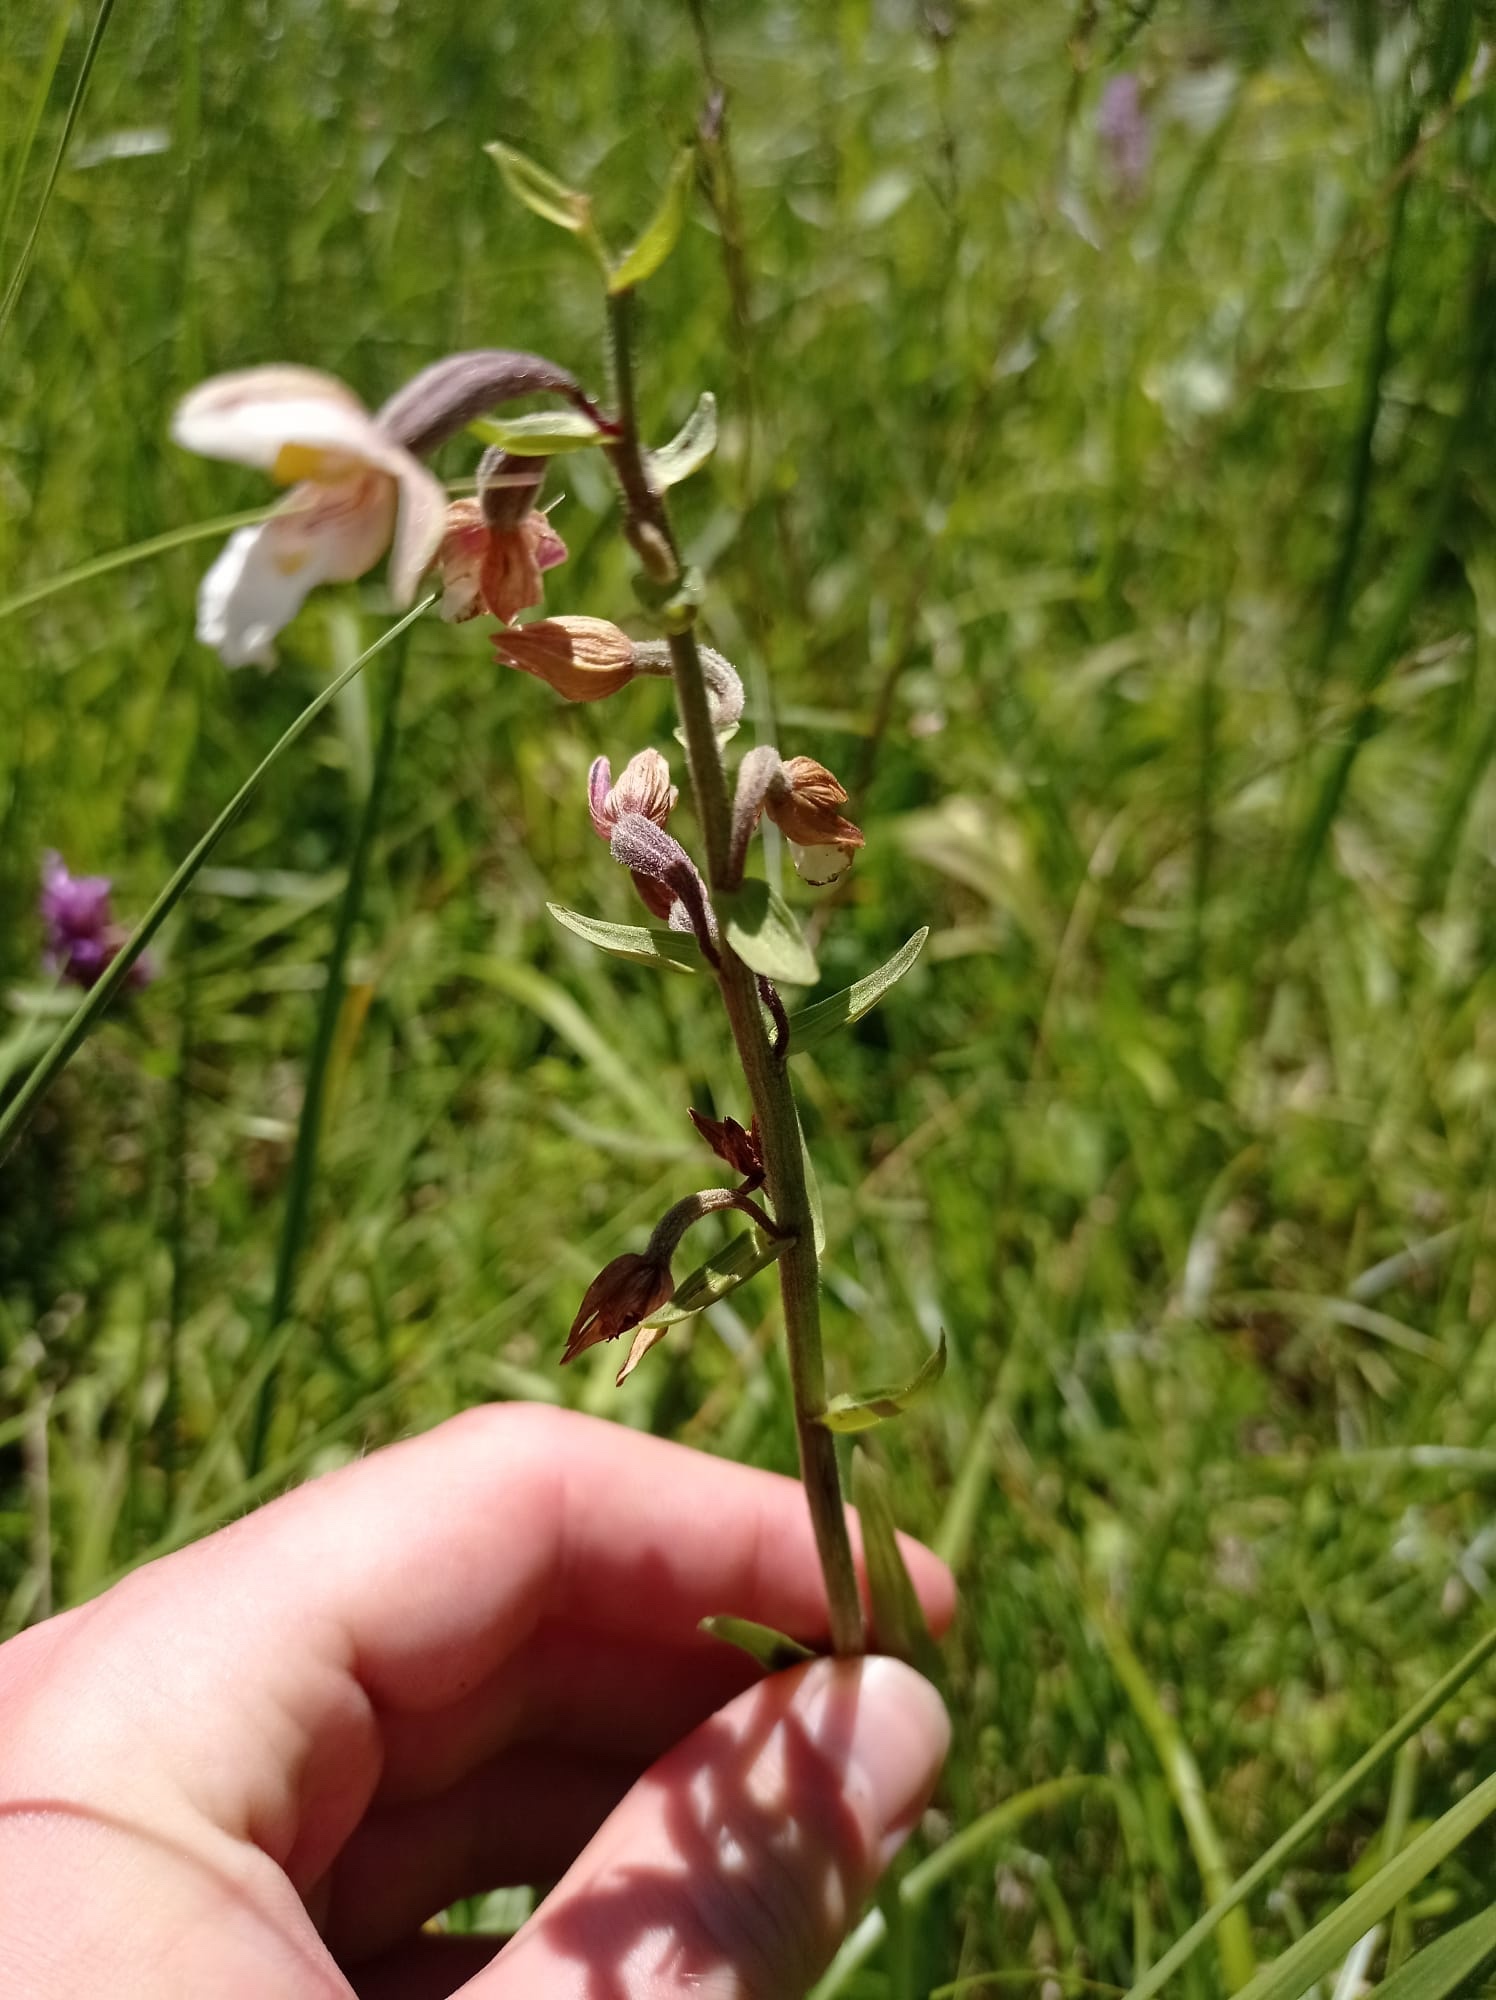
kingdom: Plantae
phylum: Tracheophyta
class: Liliopsida
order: Asparagales
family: Orchidaceae
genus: Epipactis
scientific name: Epipactis palustris
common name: Marsh helleborine
